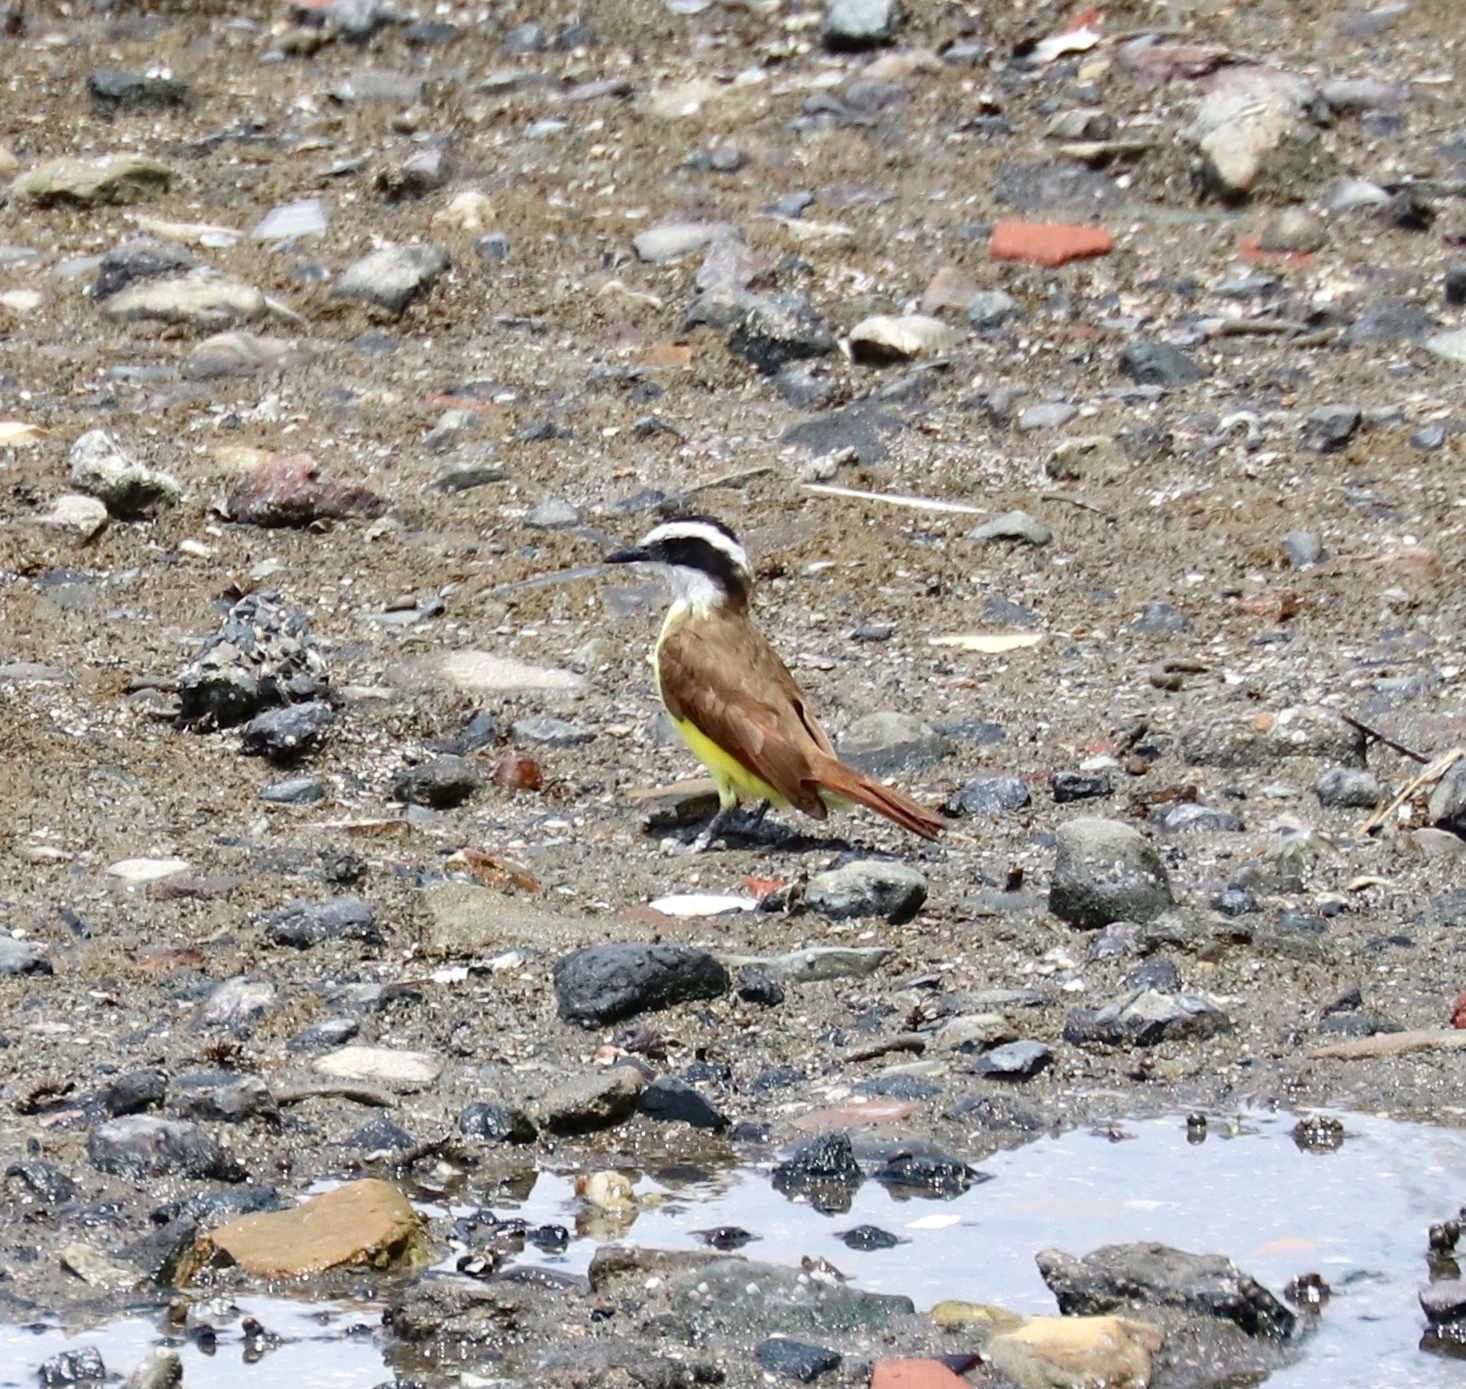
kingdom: Animalia
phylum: Chordata
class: Aves
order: Passeriformes
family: Tyrannidae
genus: Pitangus
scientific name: Pitangus sulphuratus
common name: Great kiskadee
